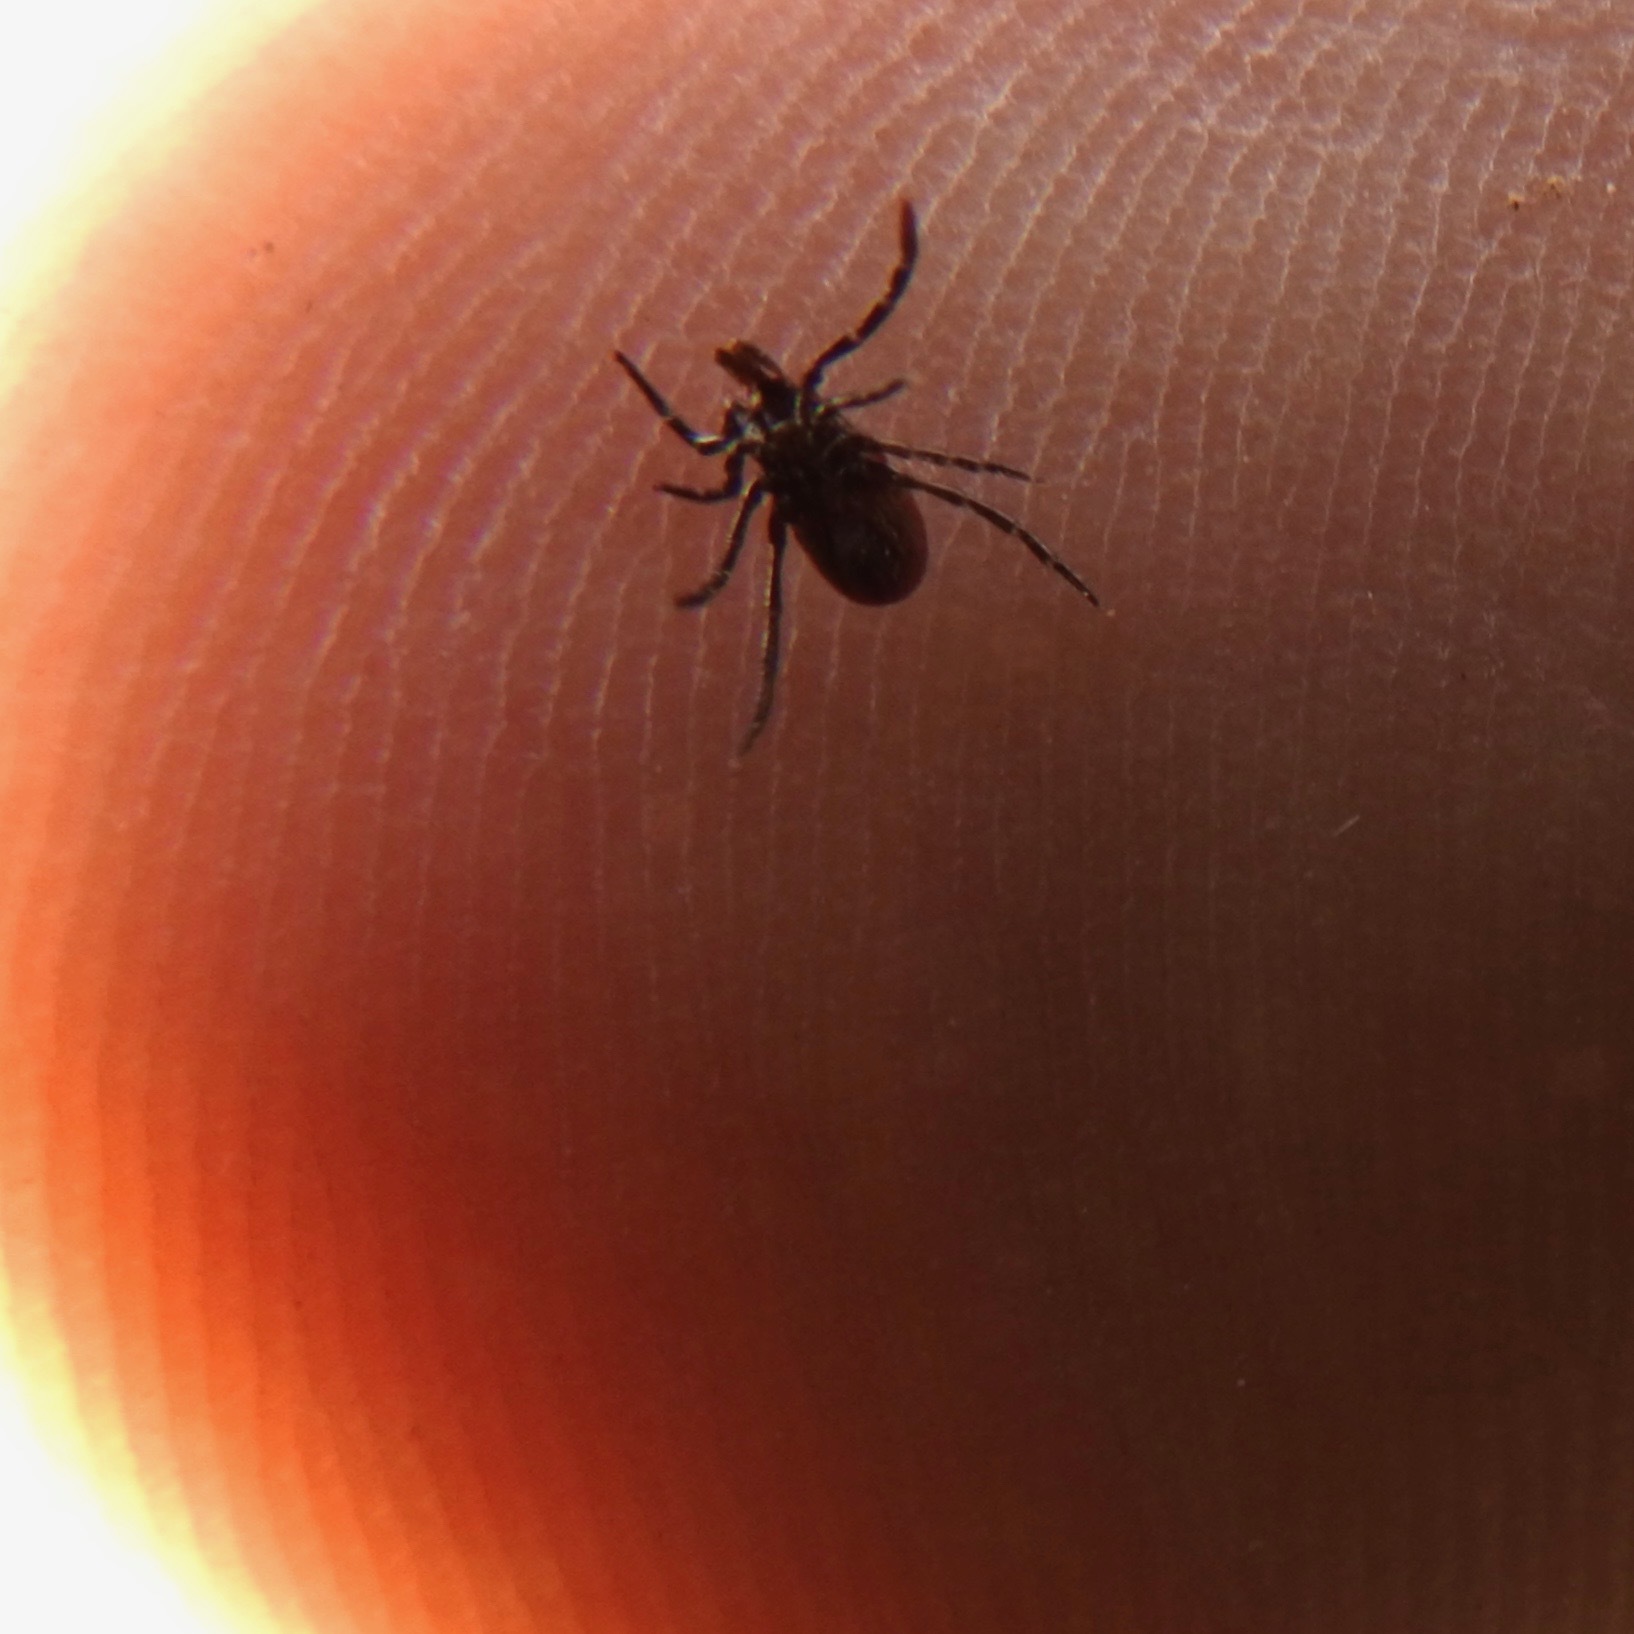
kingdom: Animalia
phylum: Arthropoda
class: Arachnida
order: Ixodida
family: Ixodidae
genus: Ixodes
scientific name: Ixodes pacificus
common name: California black-legged tick
